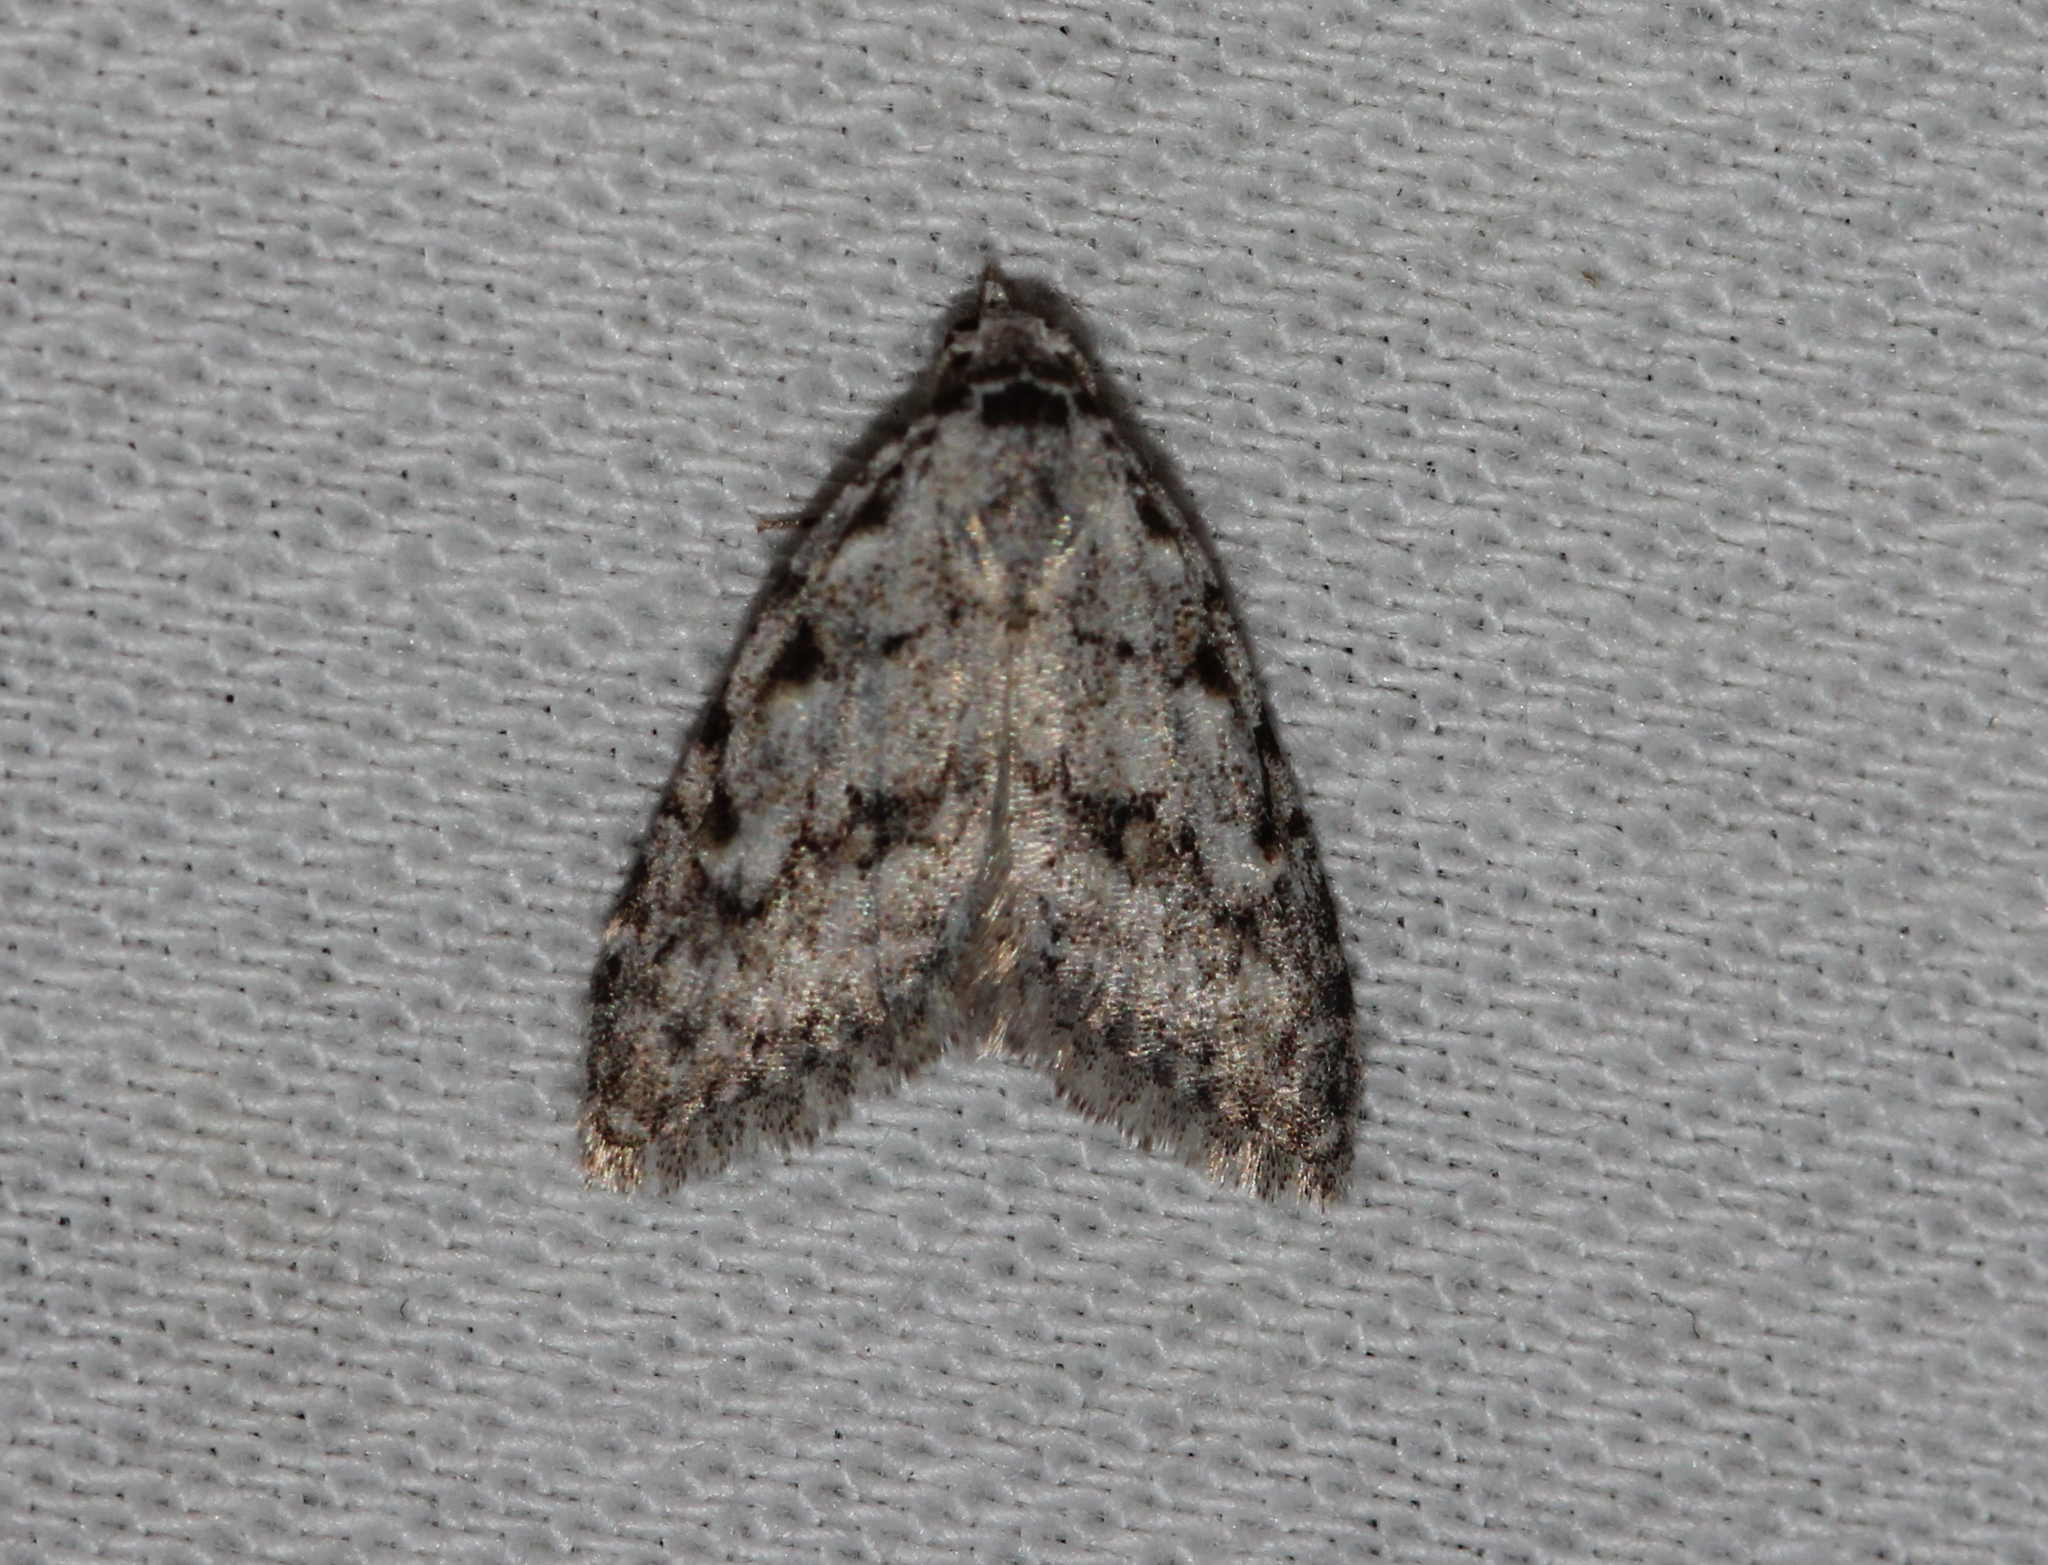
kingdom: Animalia
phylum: Arthropoda
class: Insecta
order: Lepidoptera
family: Nolidae
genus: Nola
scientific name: Nola cicatricalis
